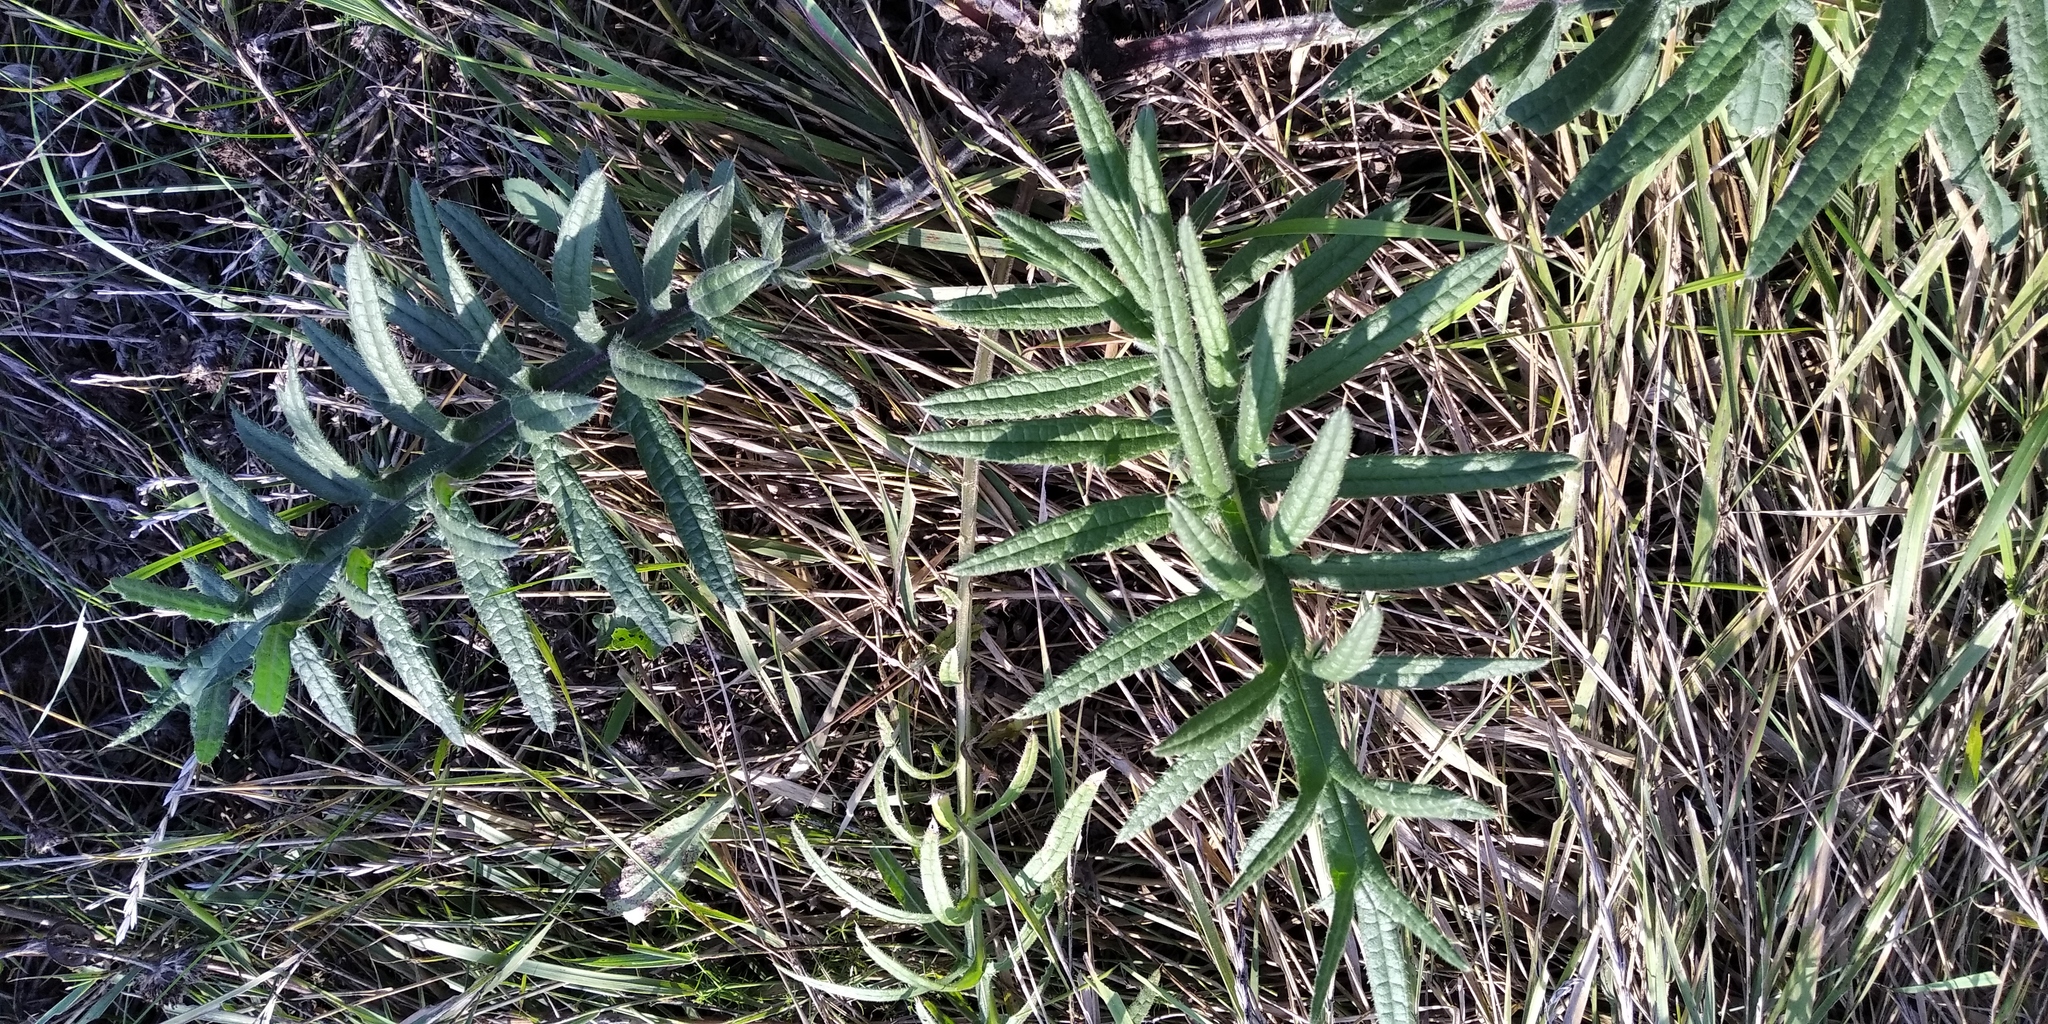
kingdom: Plantae
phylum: Tracheophyta
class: Magnoliopsida
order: Asterales
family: Asteraceae
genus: Lophiolepis
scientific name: Lophiolepis decussata
